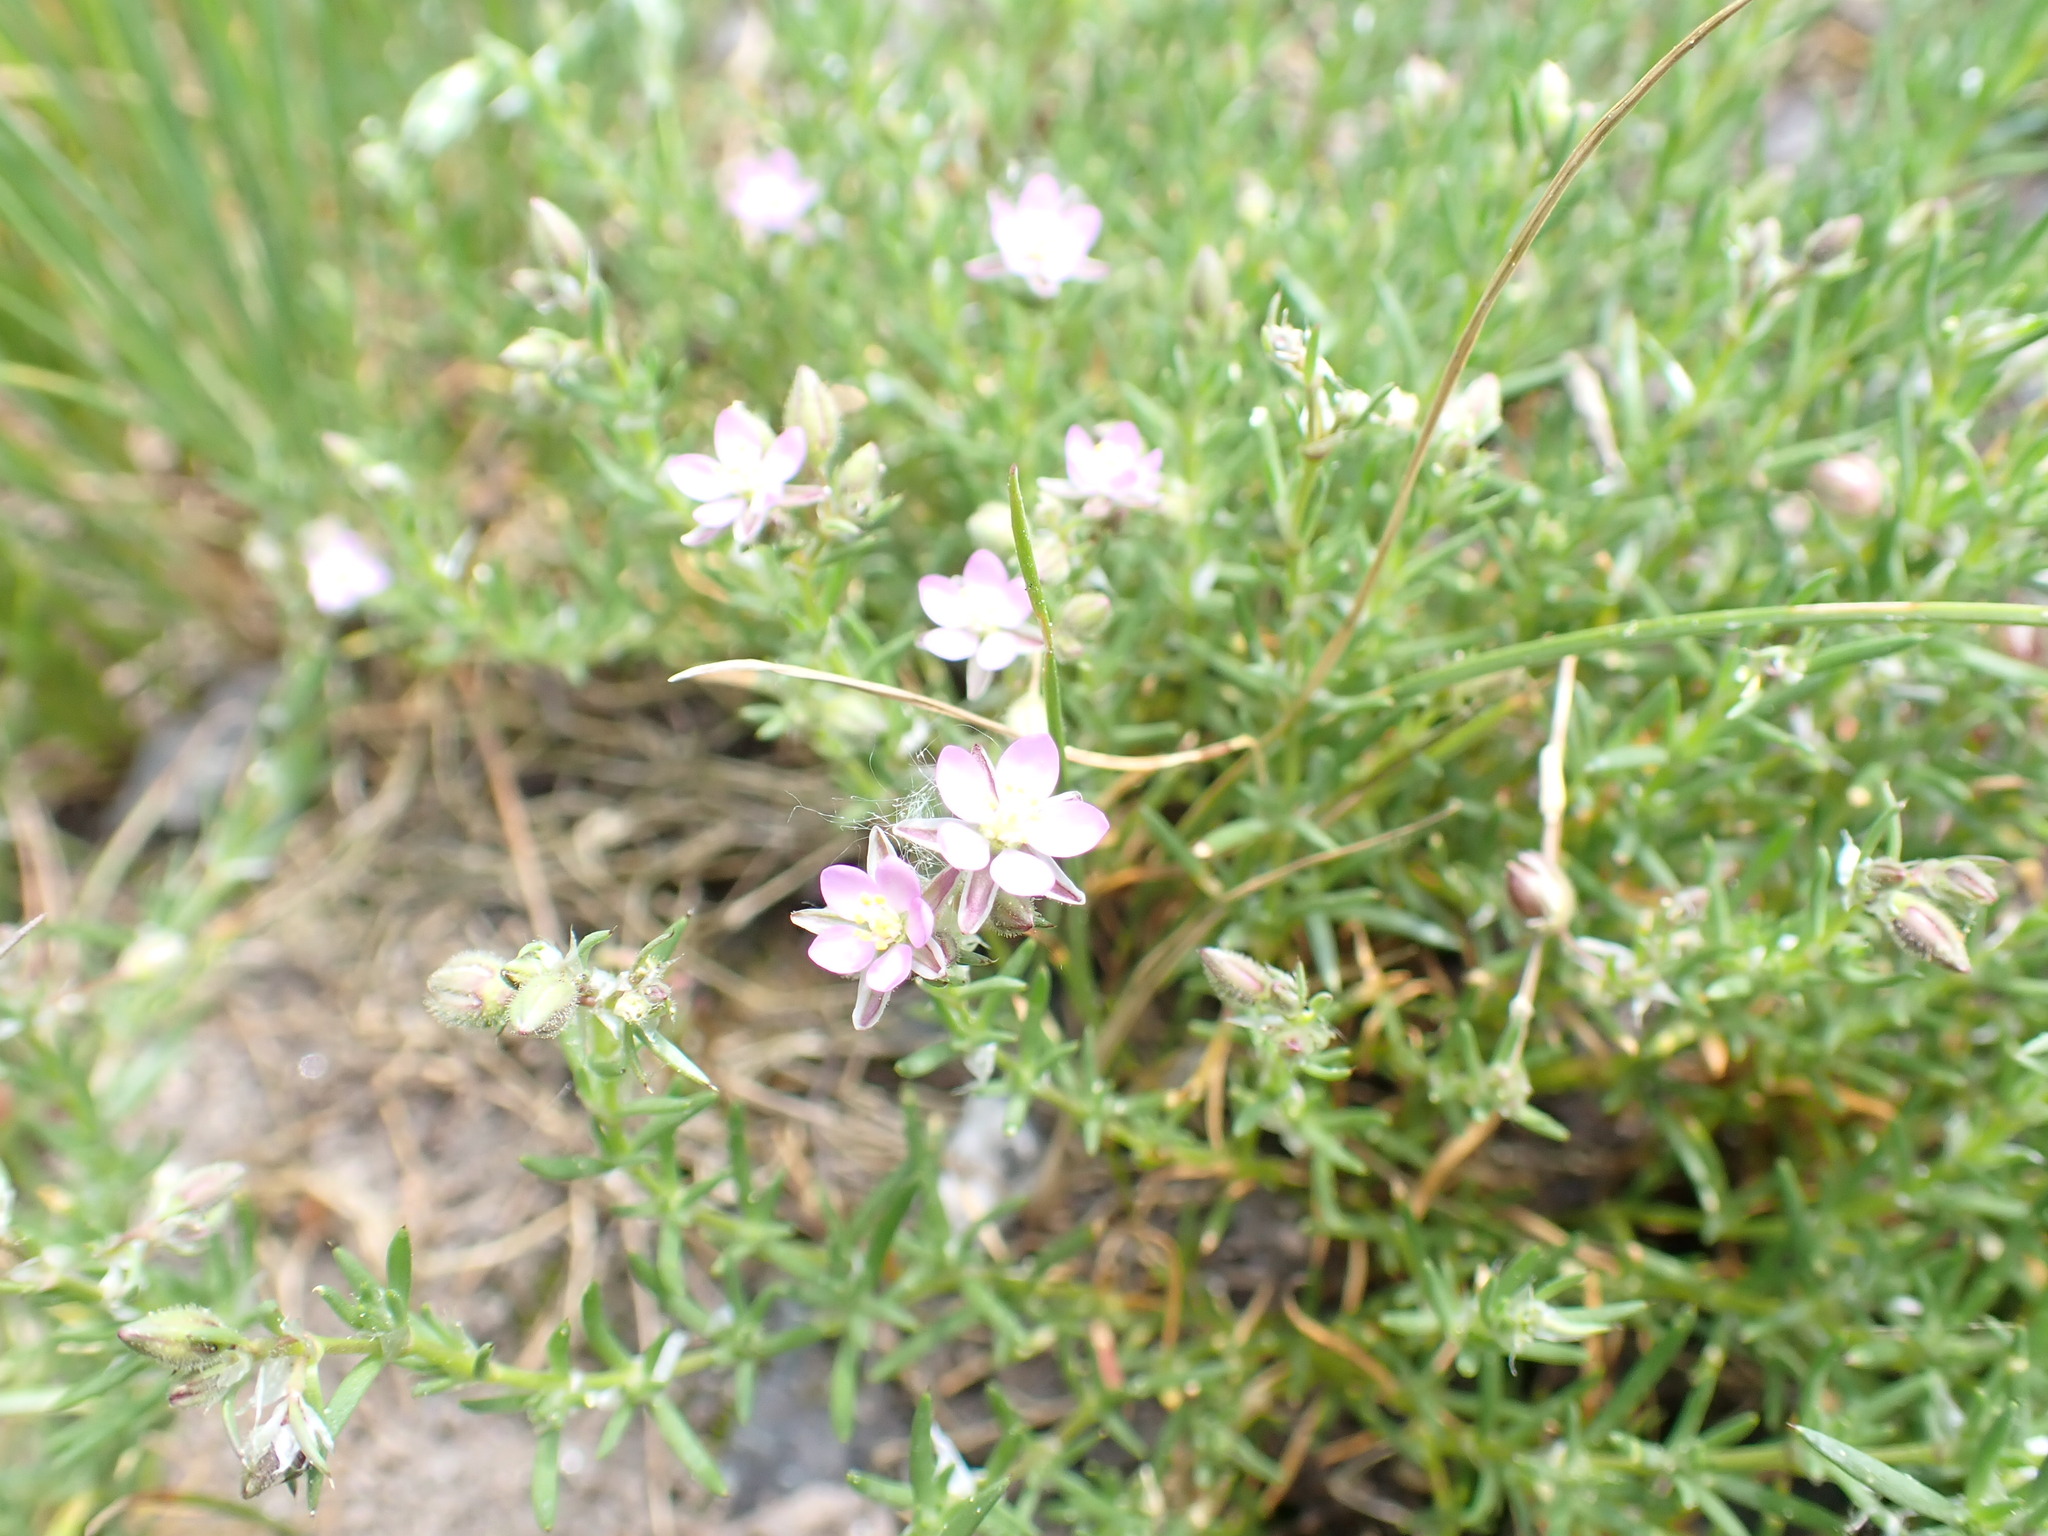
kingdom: Plantae
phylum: Tracheophyta
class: Magnoliopsida
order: Caryophyllales
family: Caryophyllaceae
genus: Spergularia
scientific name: Spergularia rubra
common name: Red sand-spurrey
